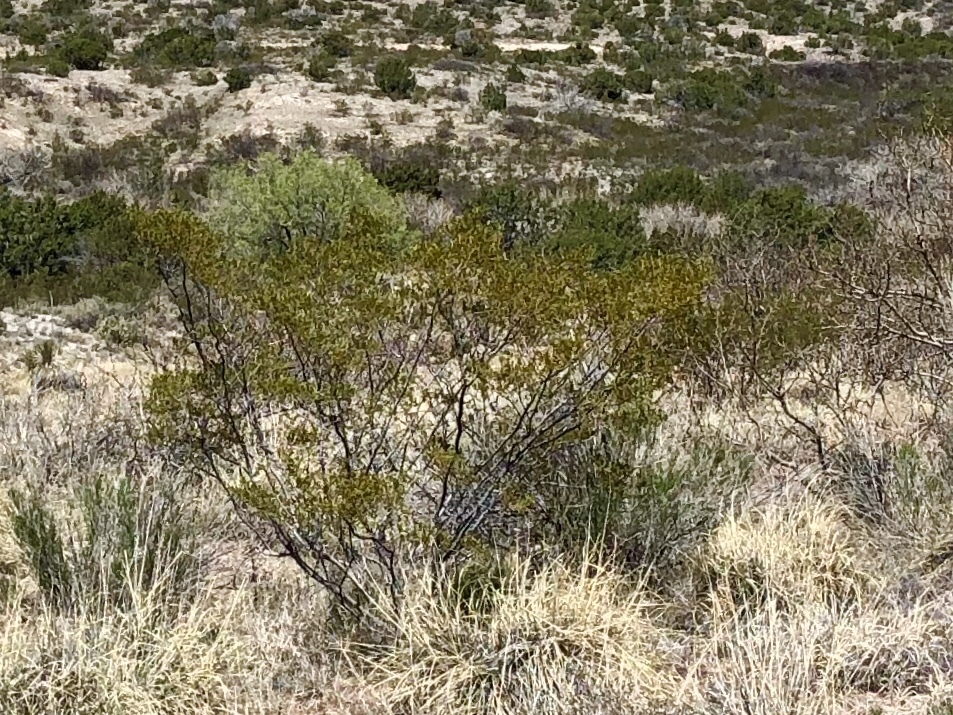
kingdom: Plantae
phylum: Tracheophyta
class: Magnoliopsida
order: Zygophyllales
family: Zygophyllaceae
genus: Larrea
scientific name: Larrea tridentata
